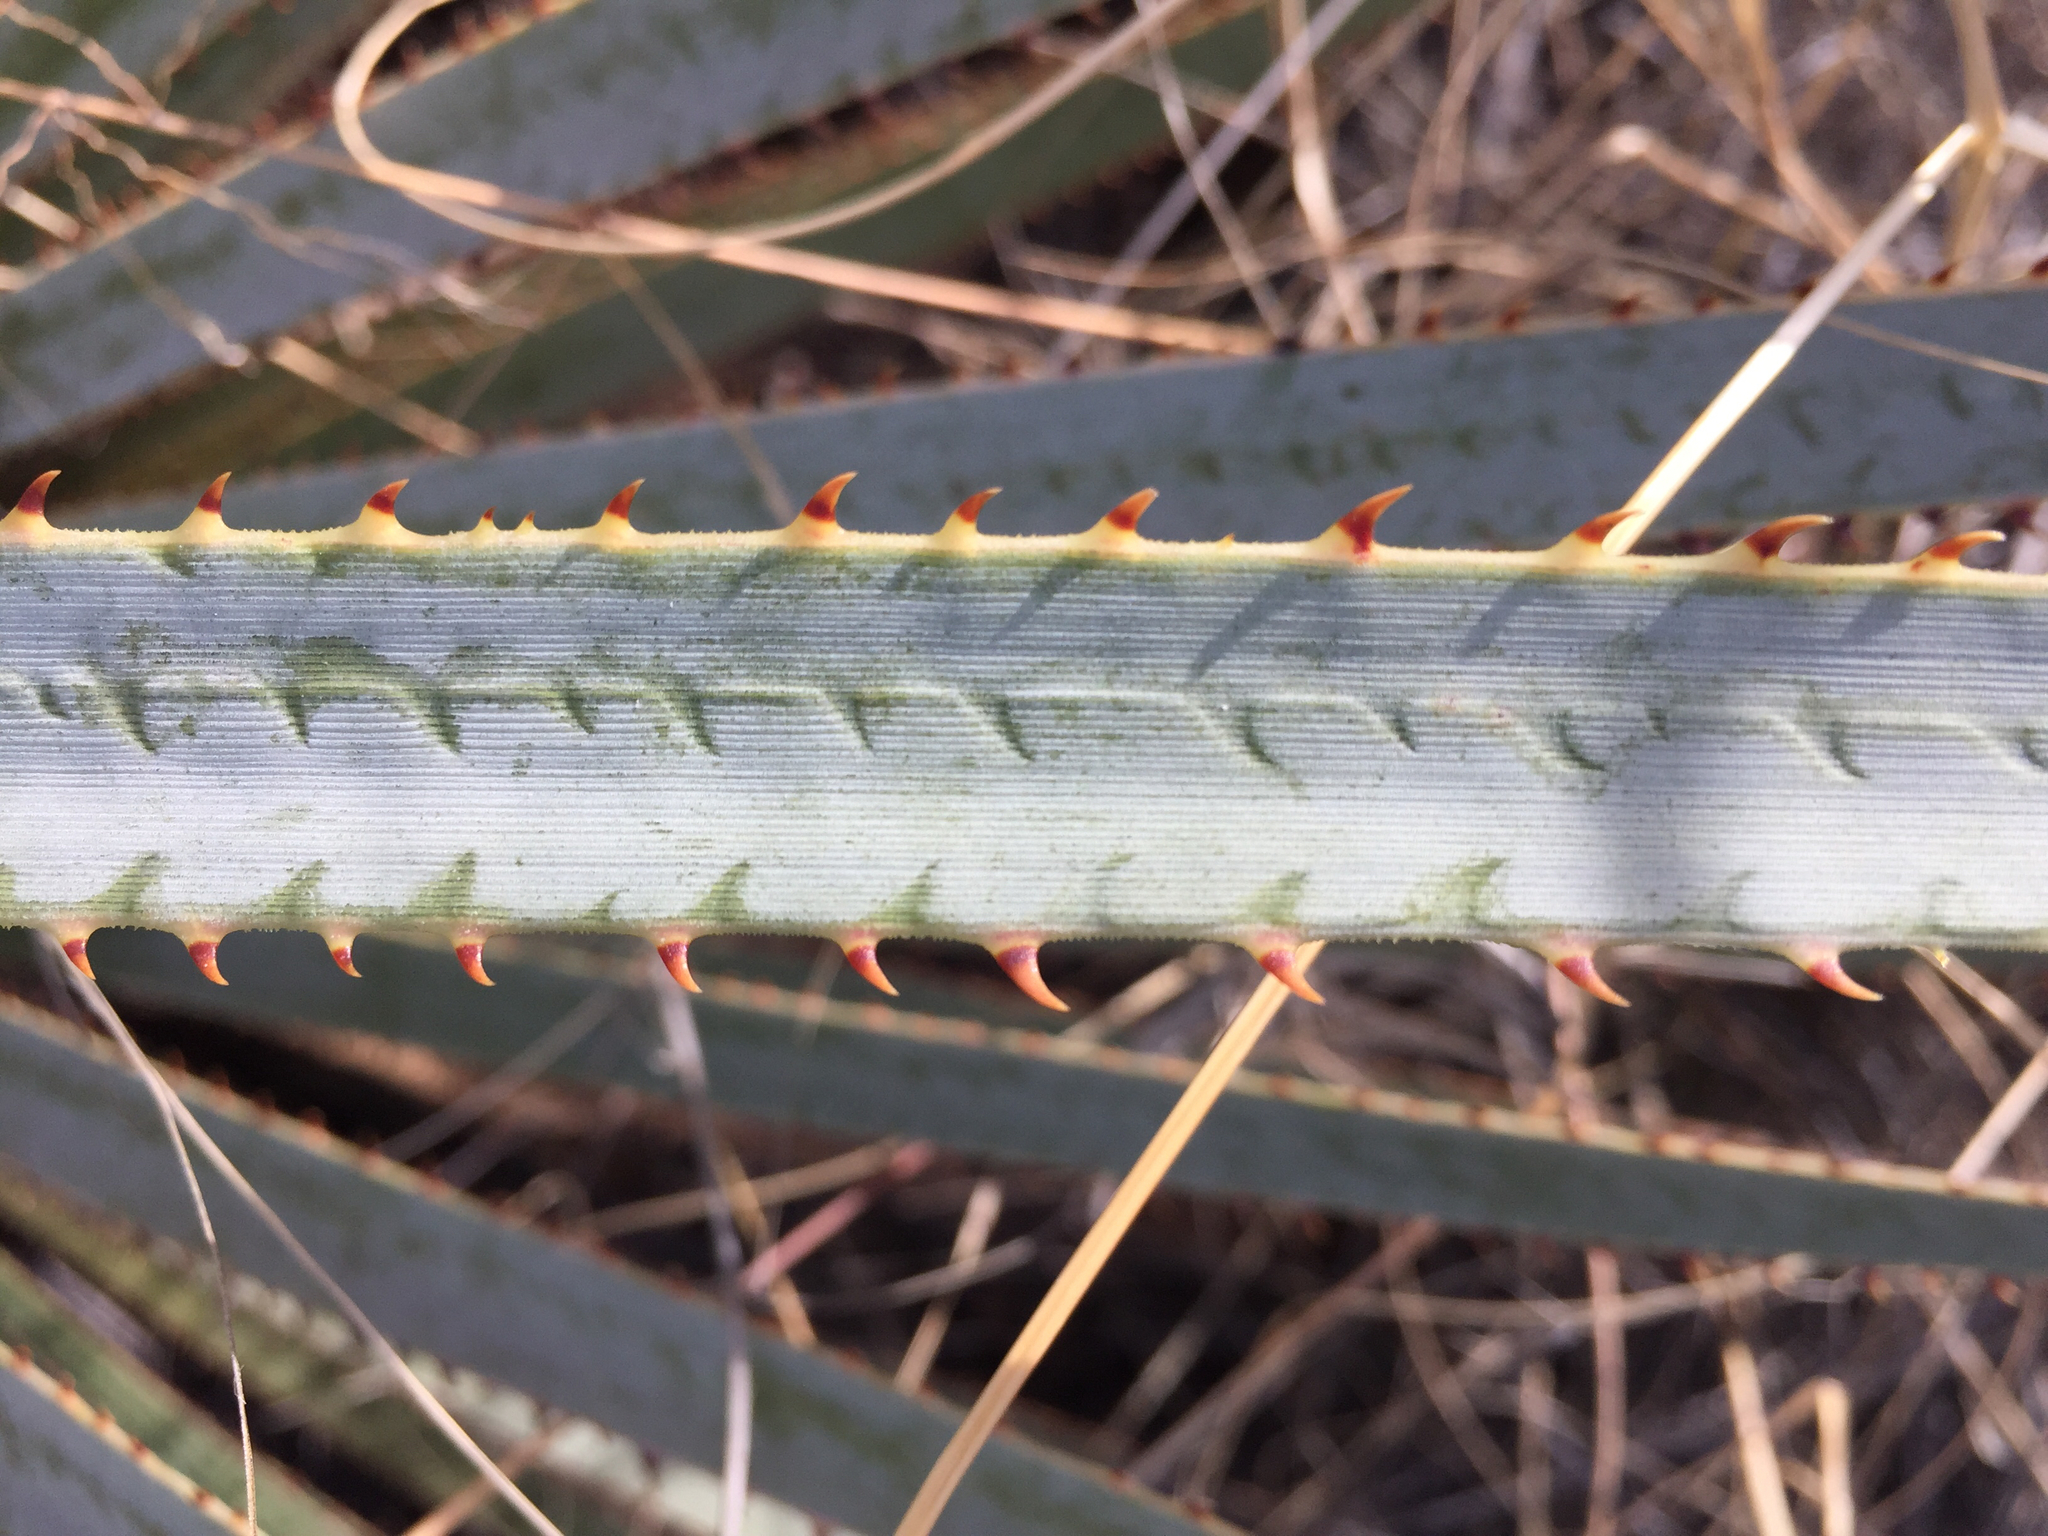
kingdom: Plantae
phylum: Tracheophyta
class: Liliopsida
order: Asparagales
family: Asparagaceae
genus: Dasylirion
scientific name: Dasylirion wheeleri
